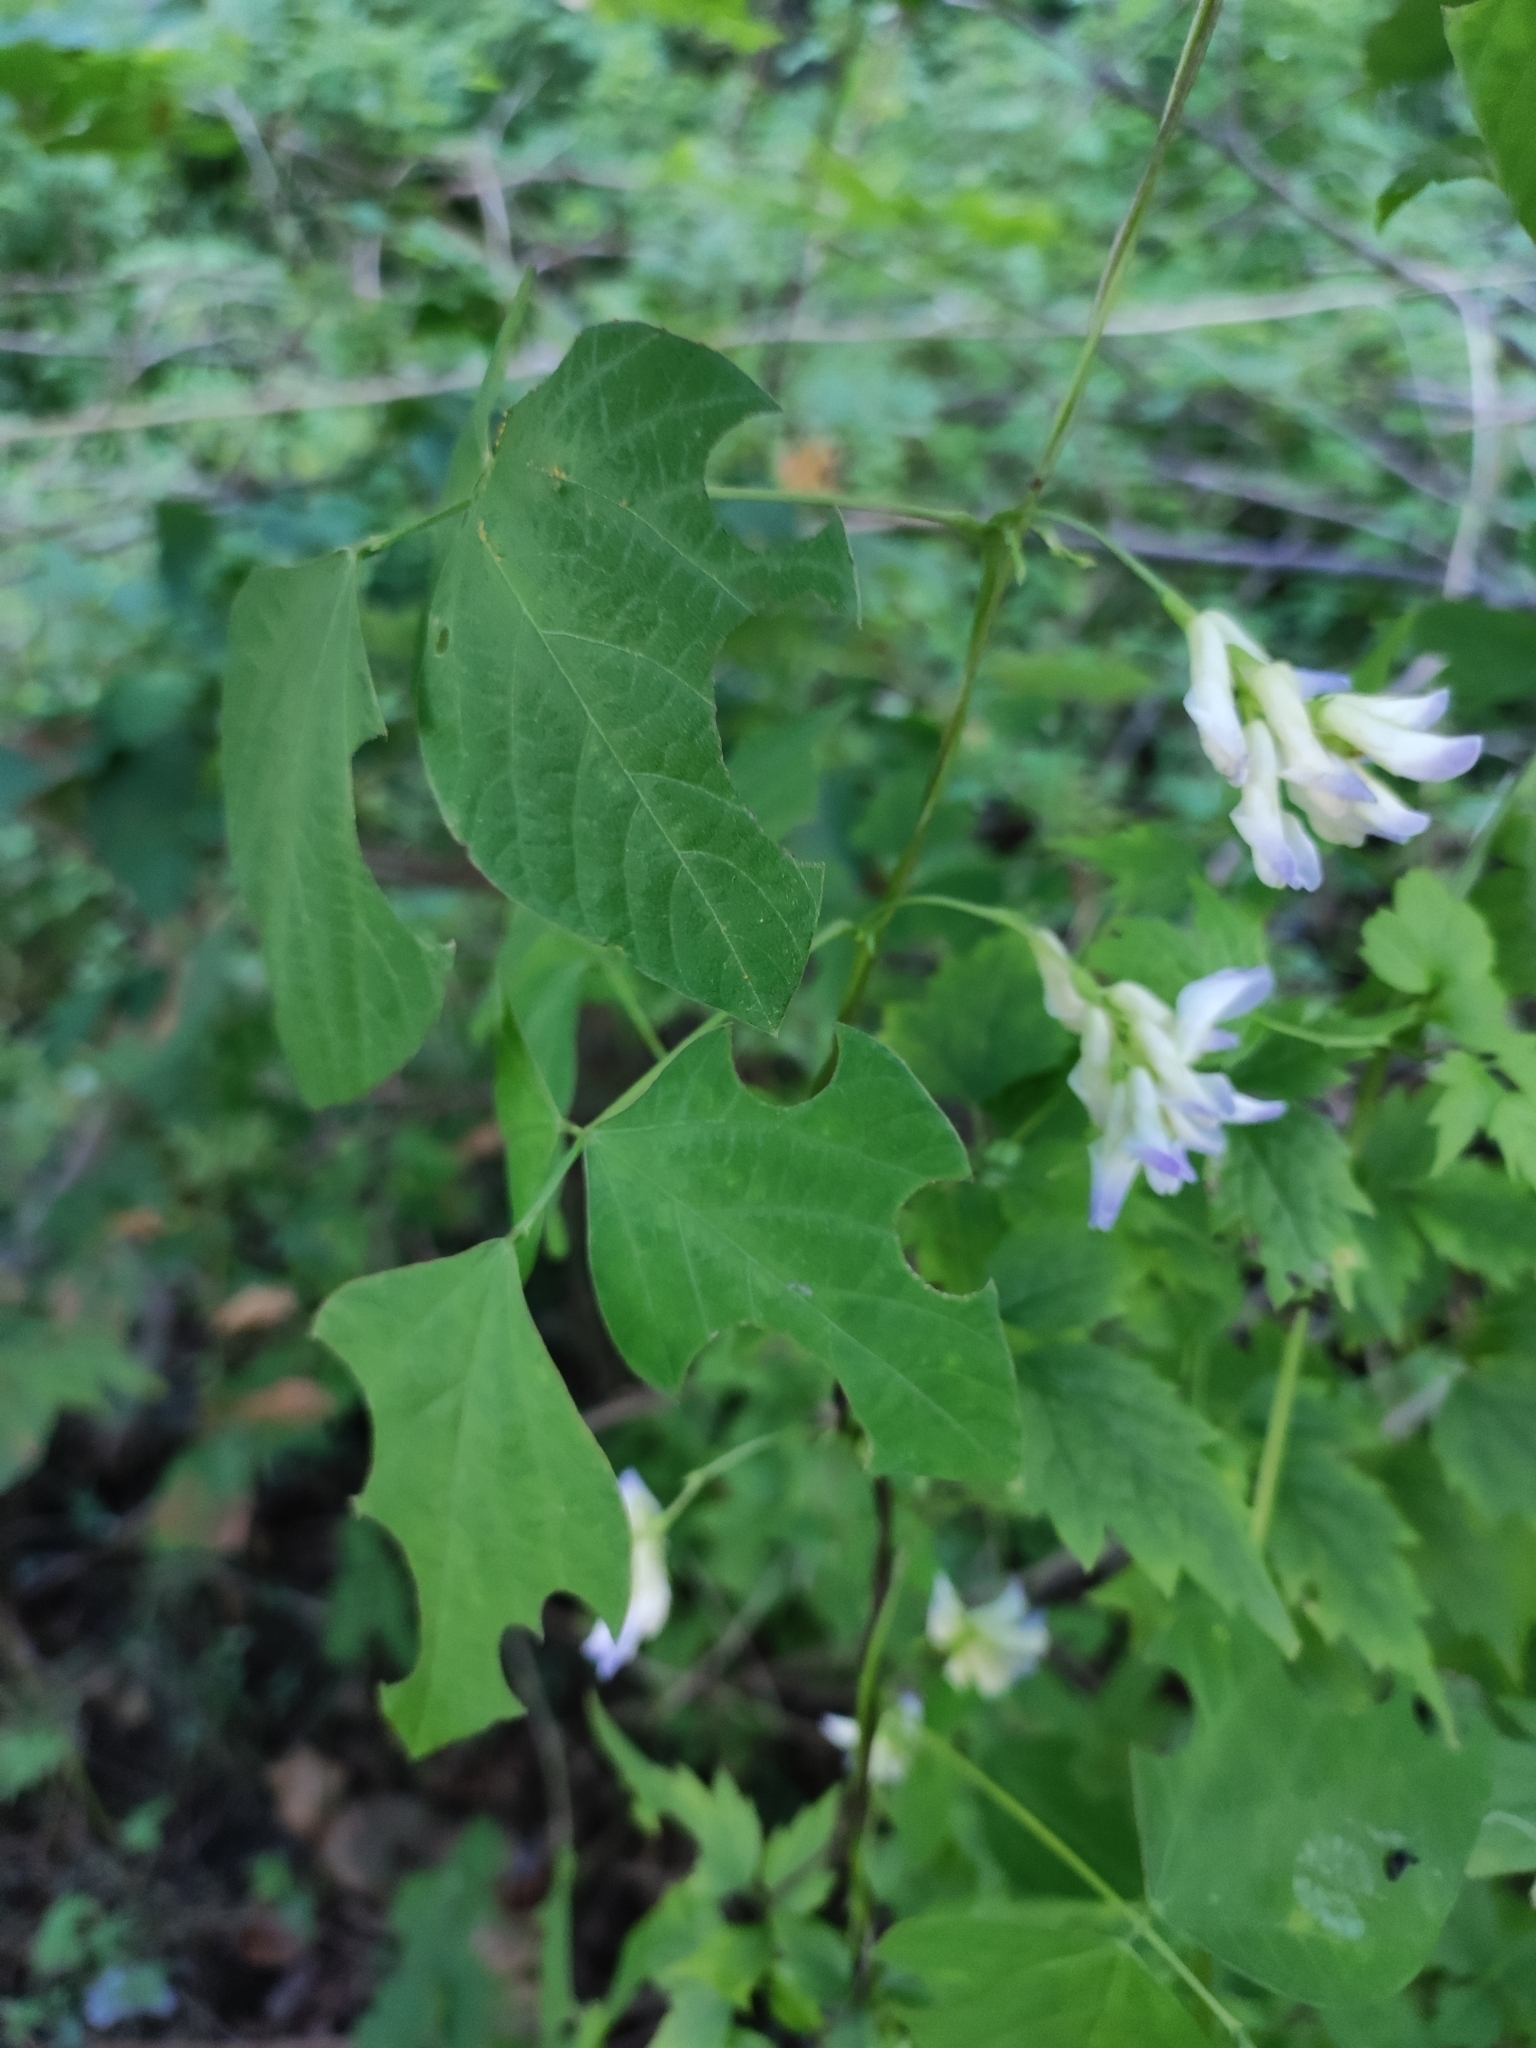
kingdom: Plantae
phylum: Tracheophyta
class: Magnoliopsida
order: Fabales
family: Fabaceae
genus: Amphicarpaea
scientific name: Amphicarpaea edgeworthii
